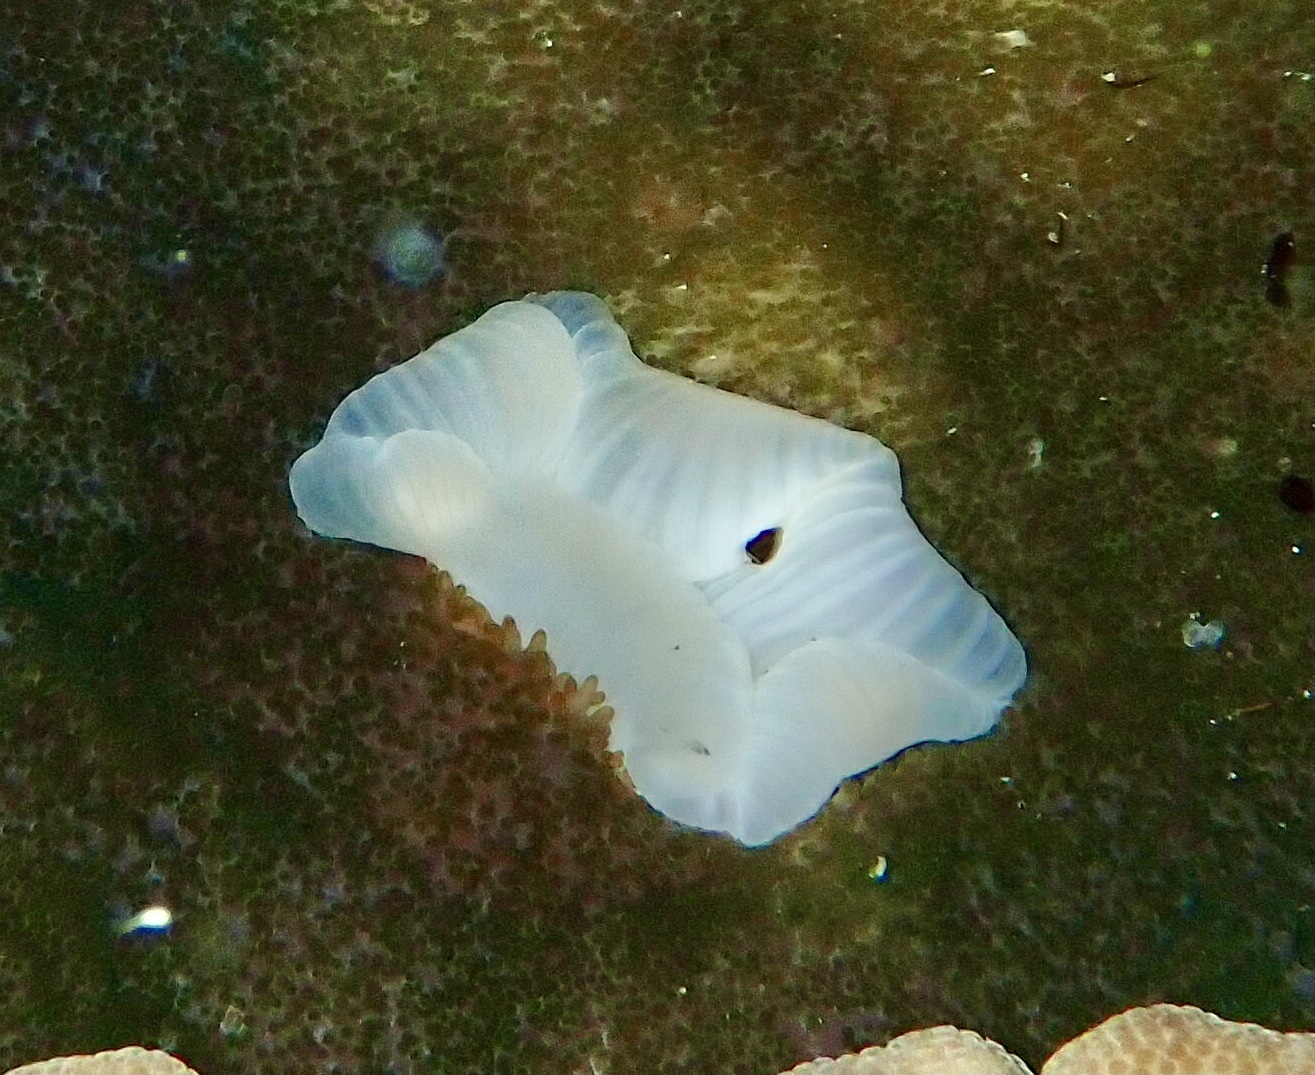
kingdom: Animalia
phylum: Cnidaria
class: Anthozoa
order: Actiniaria
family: Thalassianthidae
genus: Cryptodendrum
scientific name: Cryptodendrum adhaesivum
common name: Adhesive sea anemone
